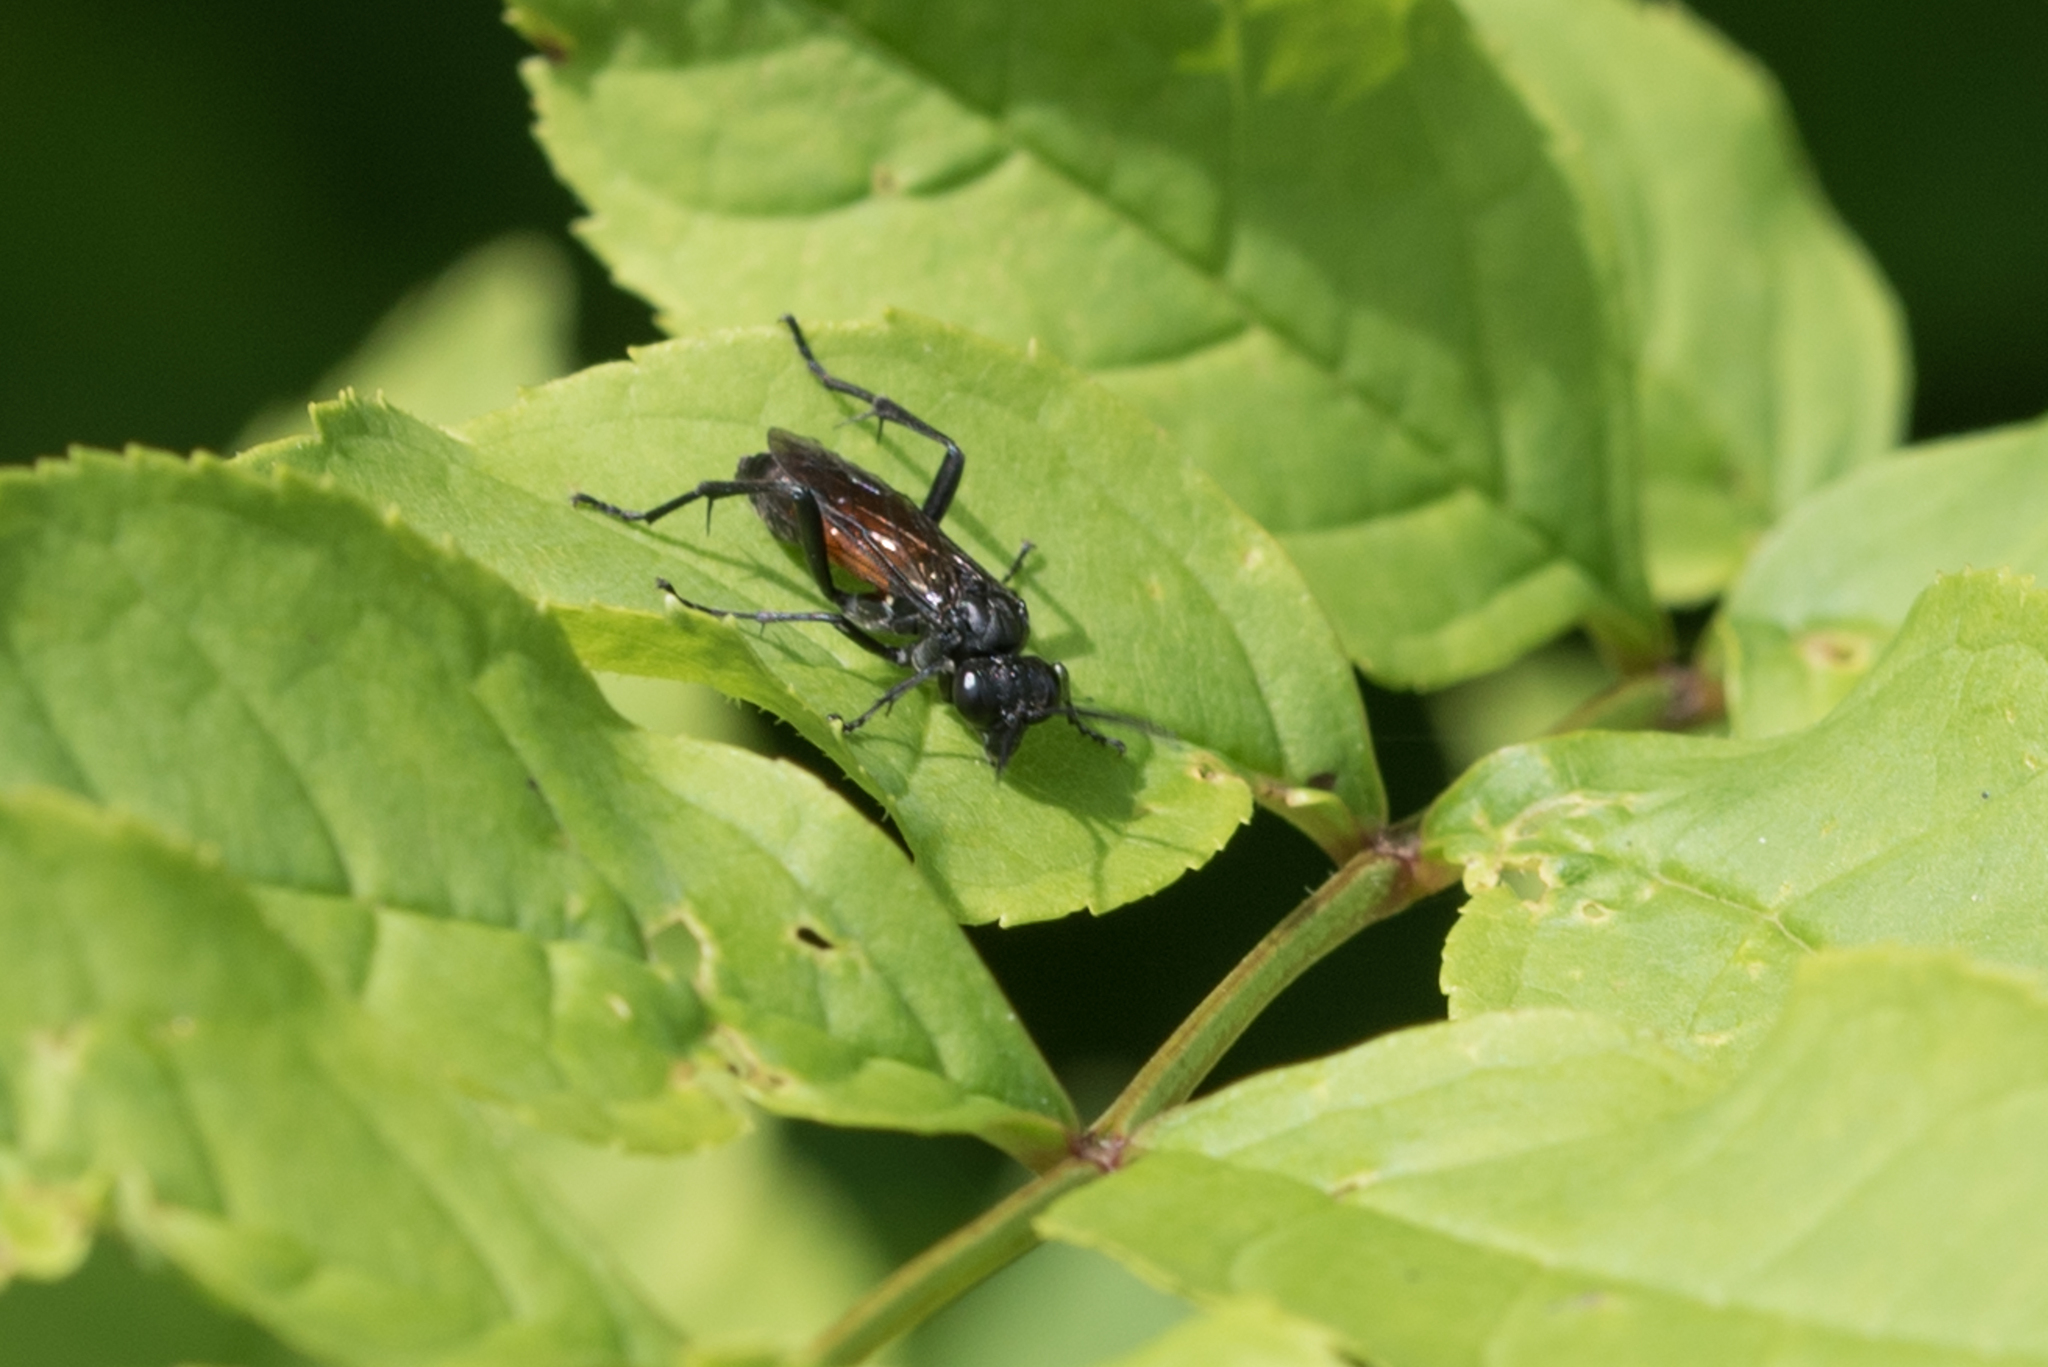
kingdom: Animalia
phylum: Arthropoda
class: Insecta
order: Hymenoptera
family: Tenthredinidae
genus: Macrophya
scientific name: Macrophya annulata
